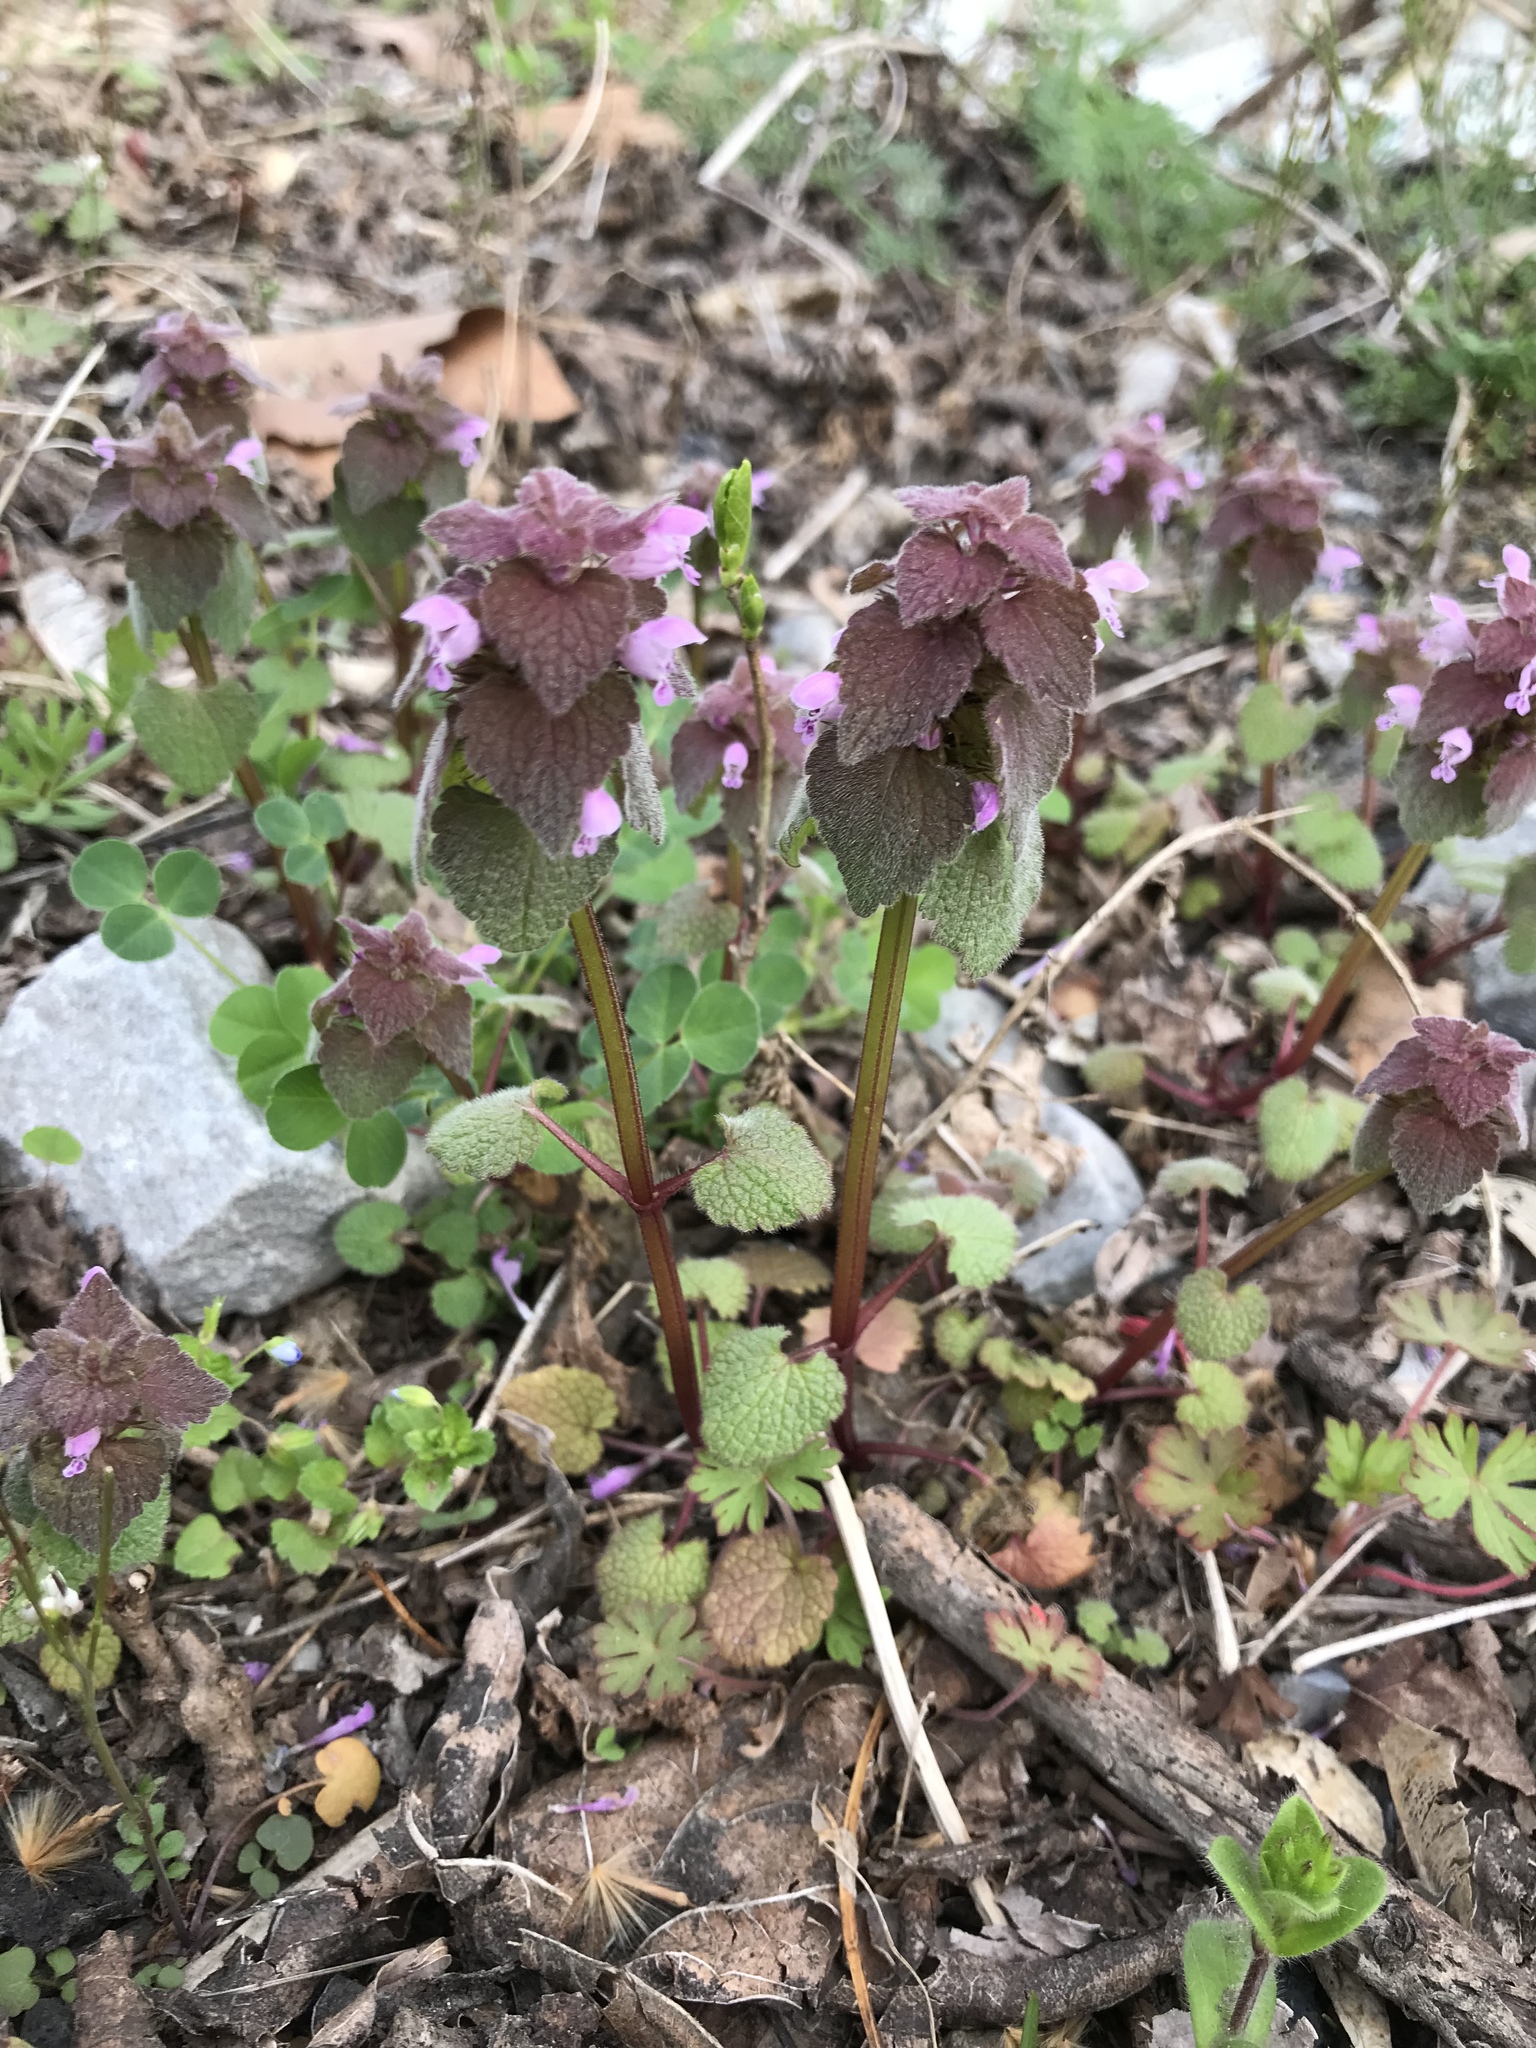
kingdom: Plantae
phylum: Tracheophyta
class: Magnoliopsida
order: Lamiales
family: Lamiaceae
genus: Lamium
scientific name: Lamium purpureum
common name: Red dead-nettle
